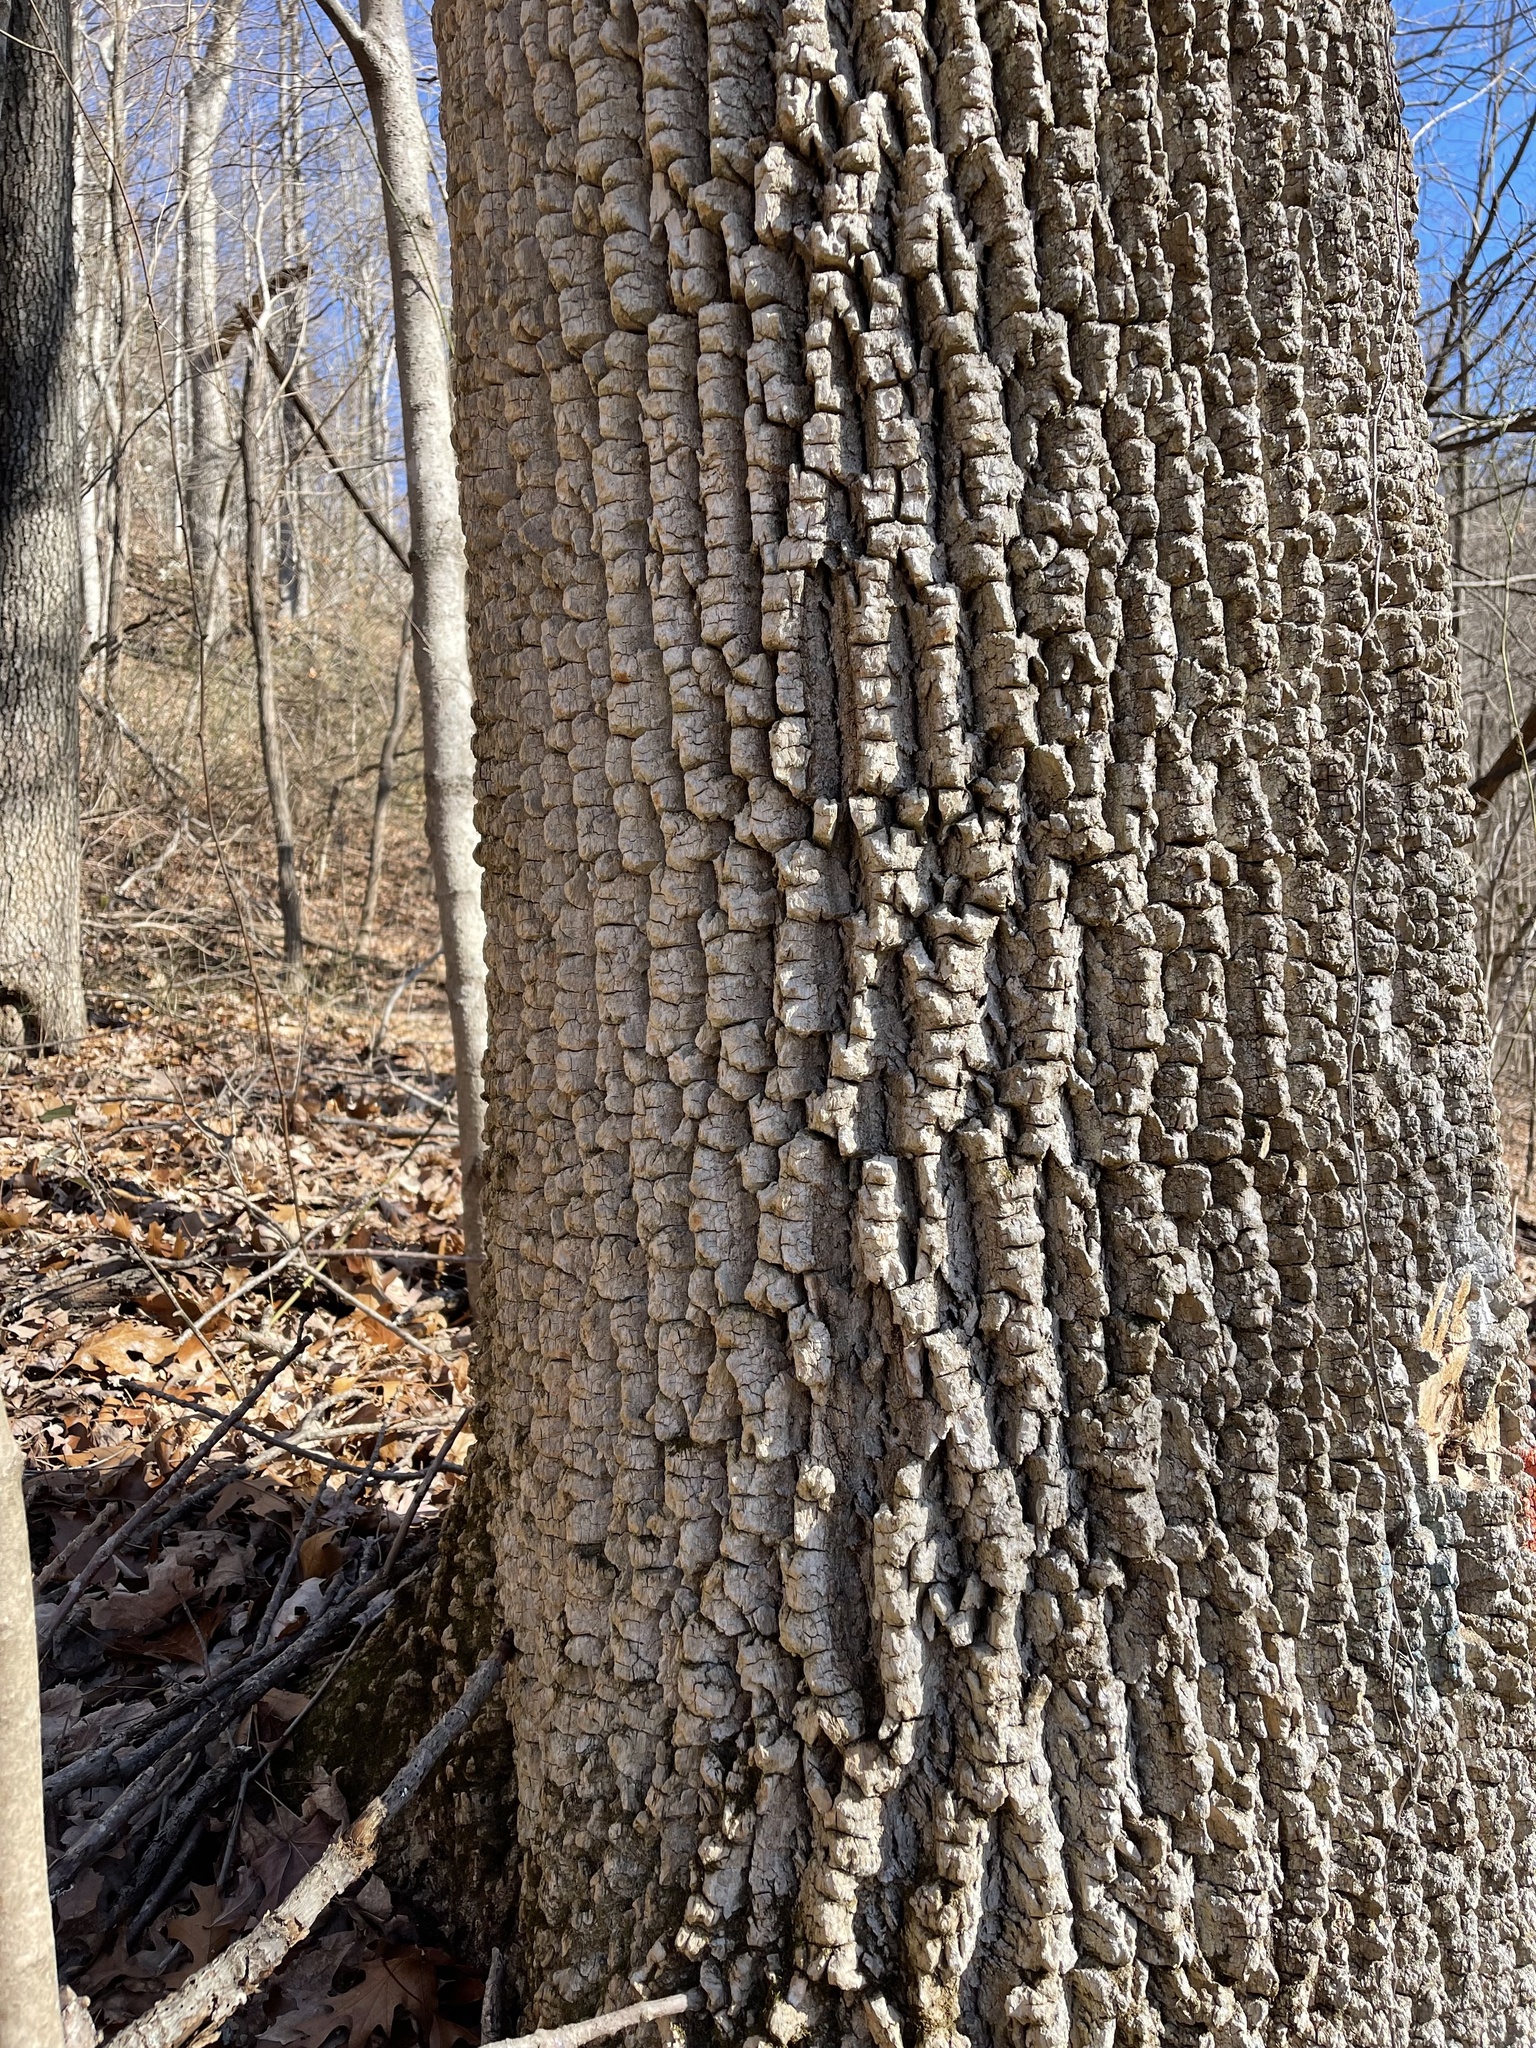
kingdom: Plantae
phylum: Tracheophyta
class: Magnoliopsida
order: Lamiales
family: Oleaceae
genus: Fraxinus
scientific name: Fraxinus americana
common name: White ash
